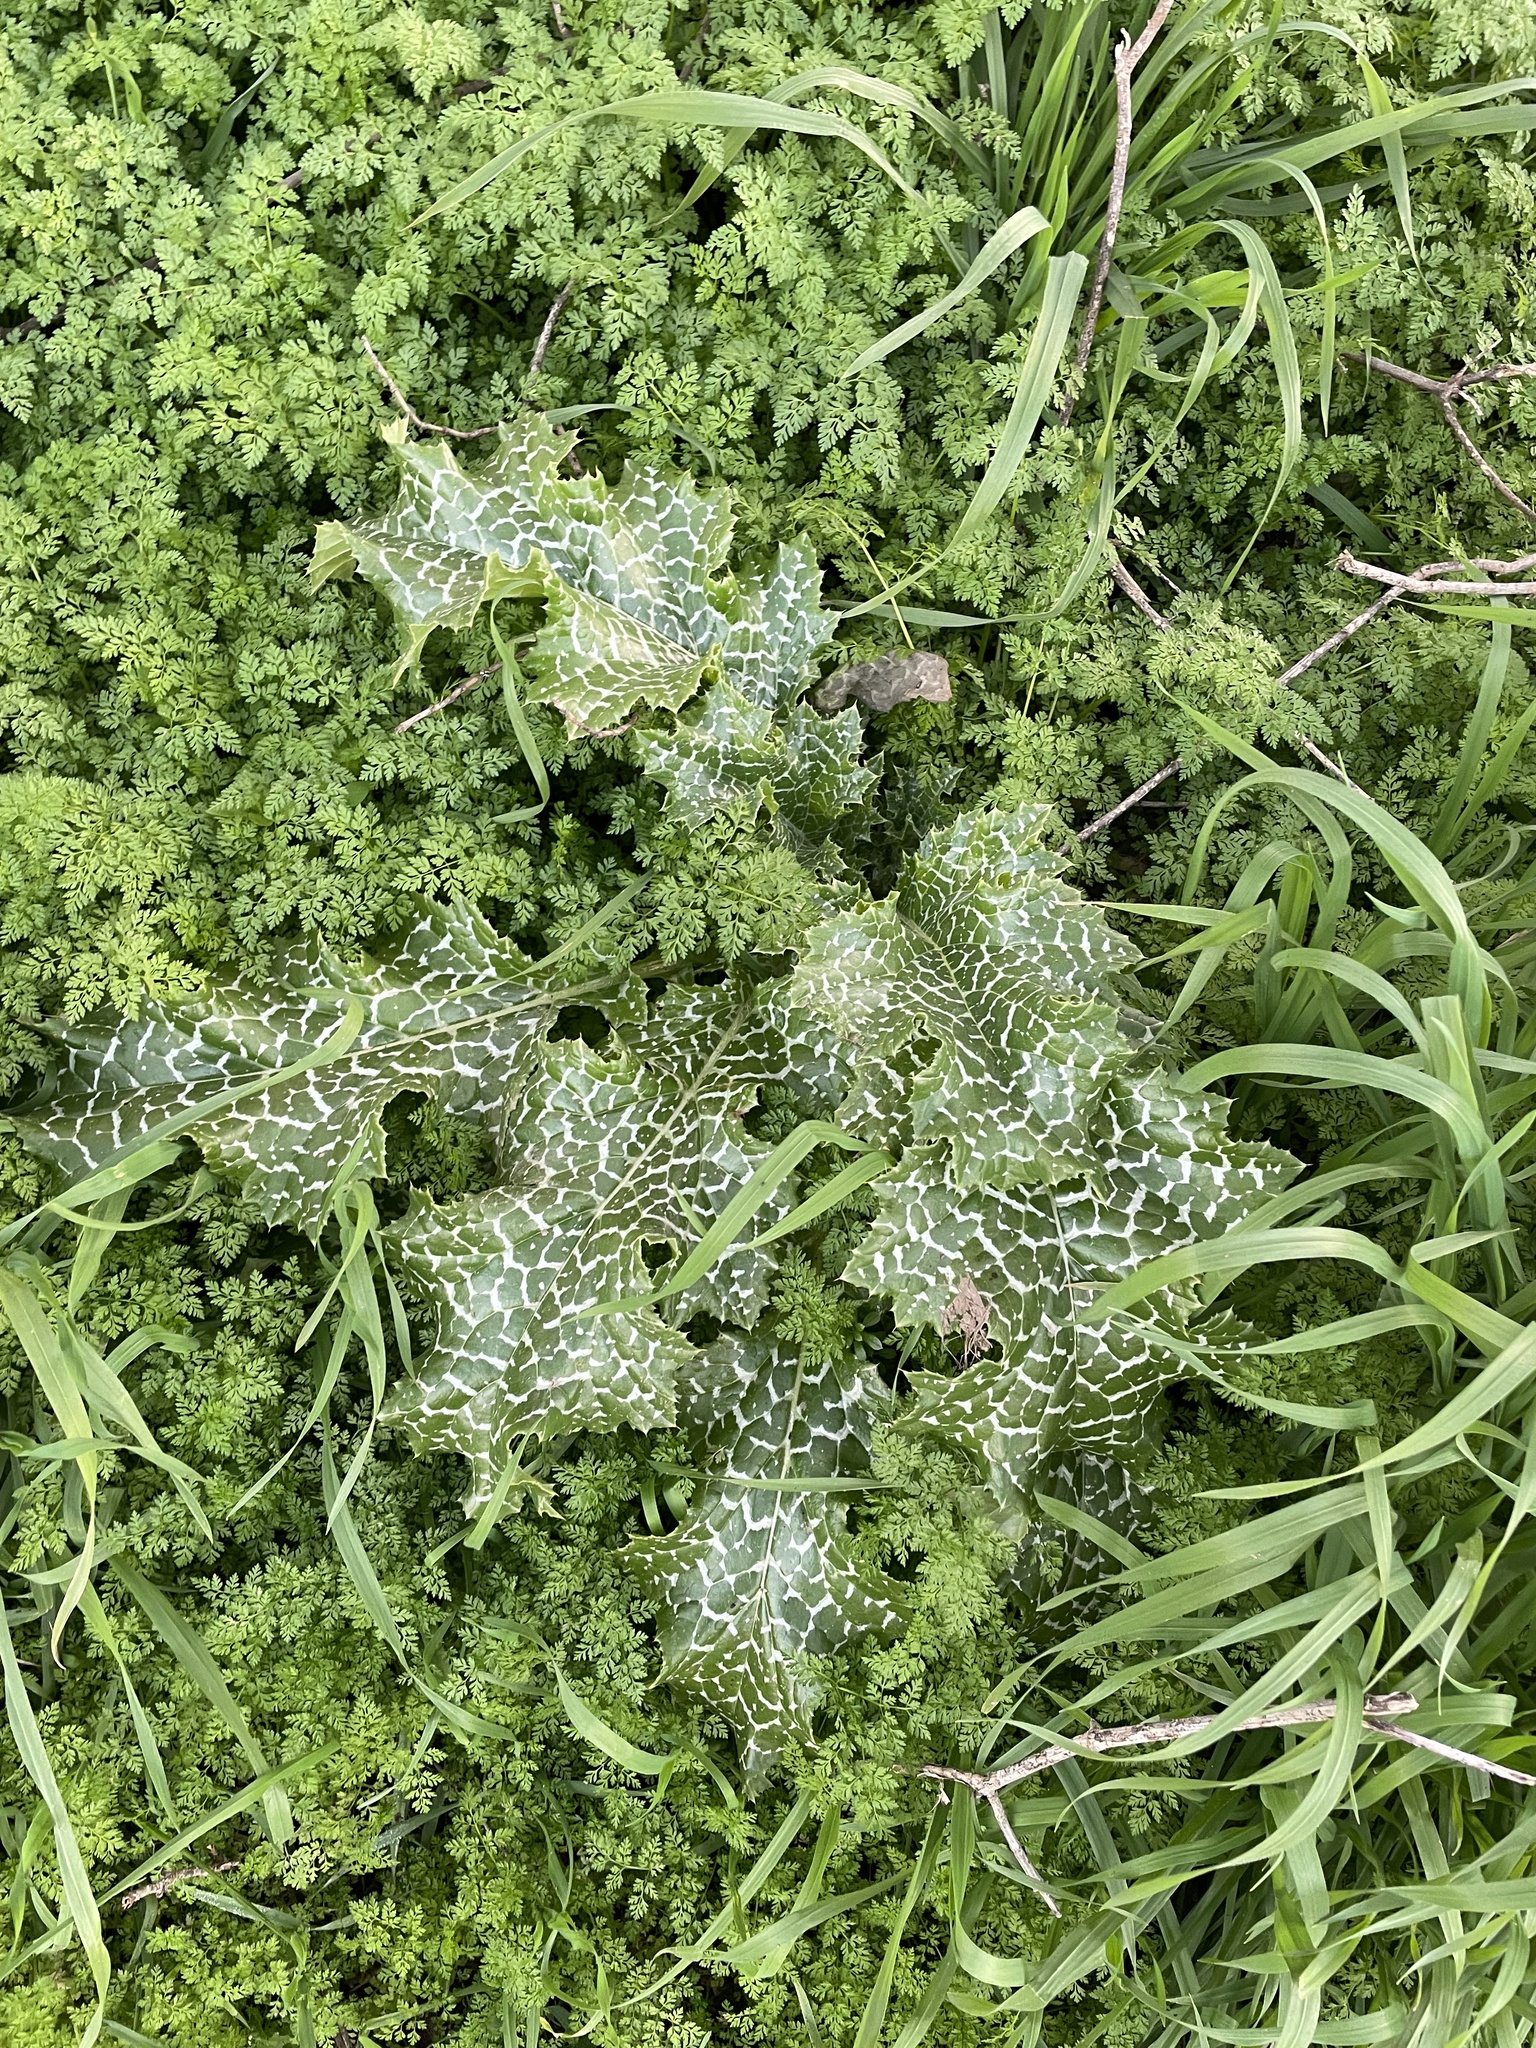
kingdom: Plantae
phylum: Tracheophyta
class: Magnoliopsida
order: Asterales
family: Asteraceae
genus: Silybum
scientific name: Silybum marianum
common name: Milk thistle
